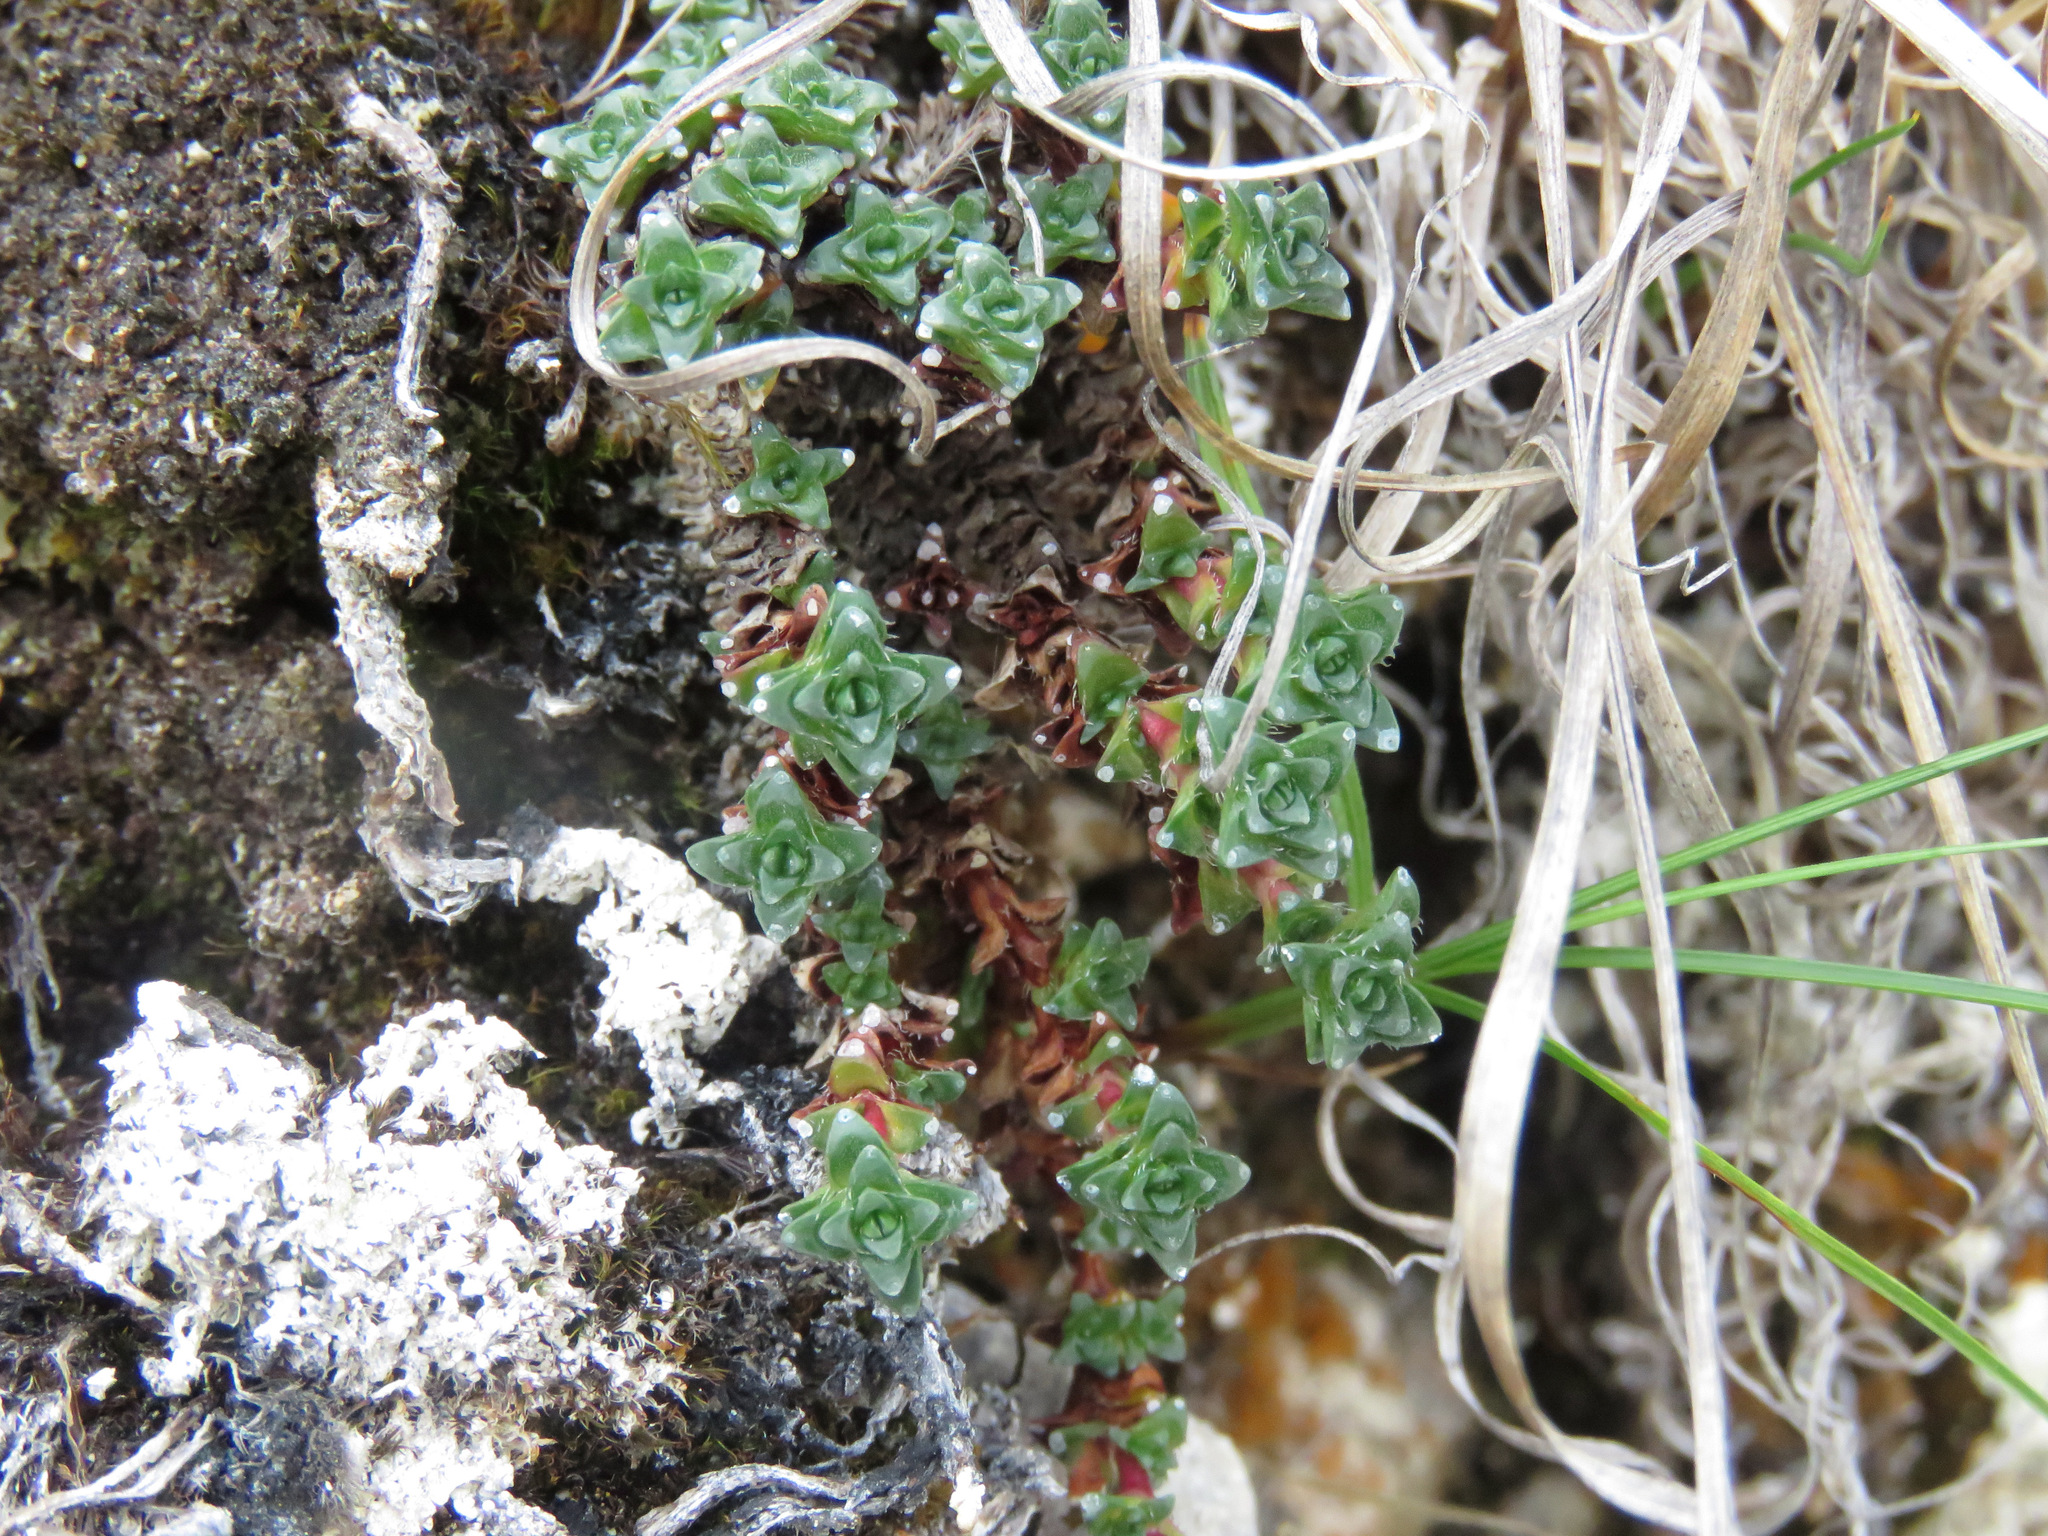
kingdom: Plantae
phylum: Tracheophyta
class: Magnoliopsida
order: Saxifragales
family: Saxifragaceae
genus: Saxifraga
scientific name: Saxifraga oppositifolia
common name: Purple saxifrage
